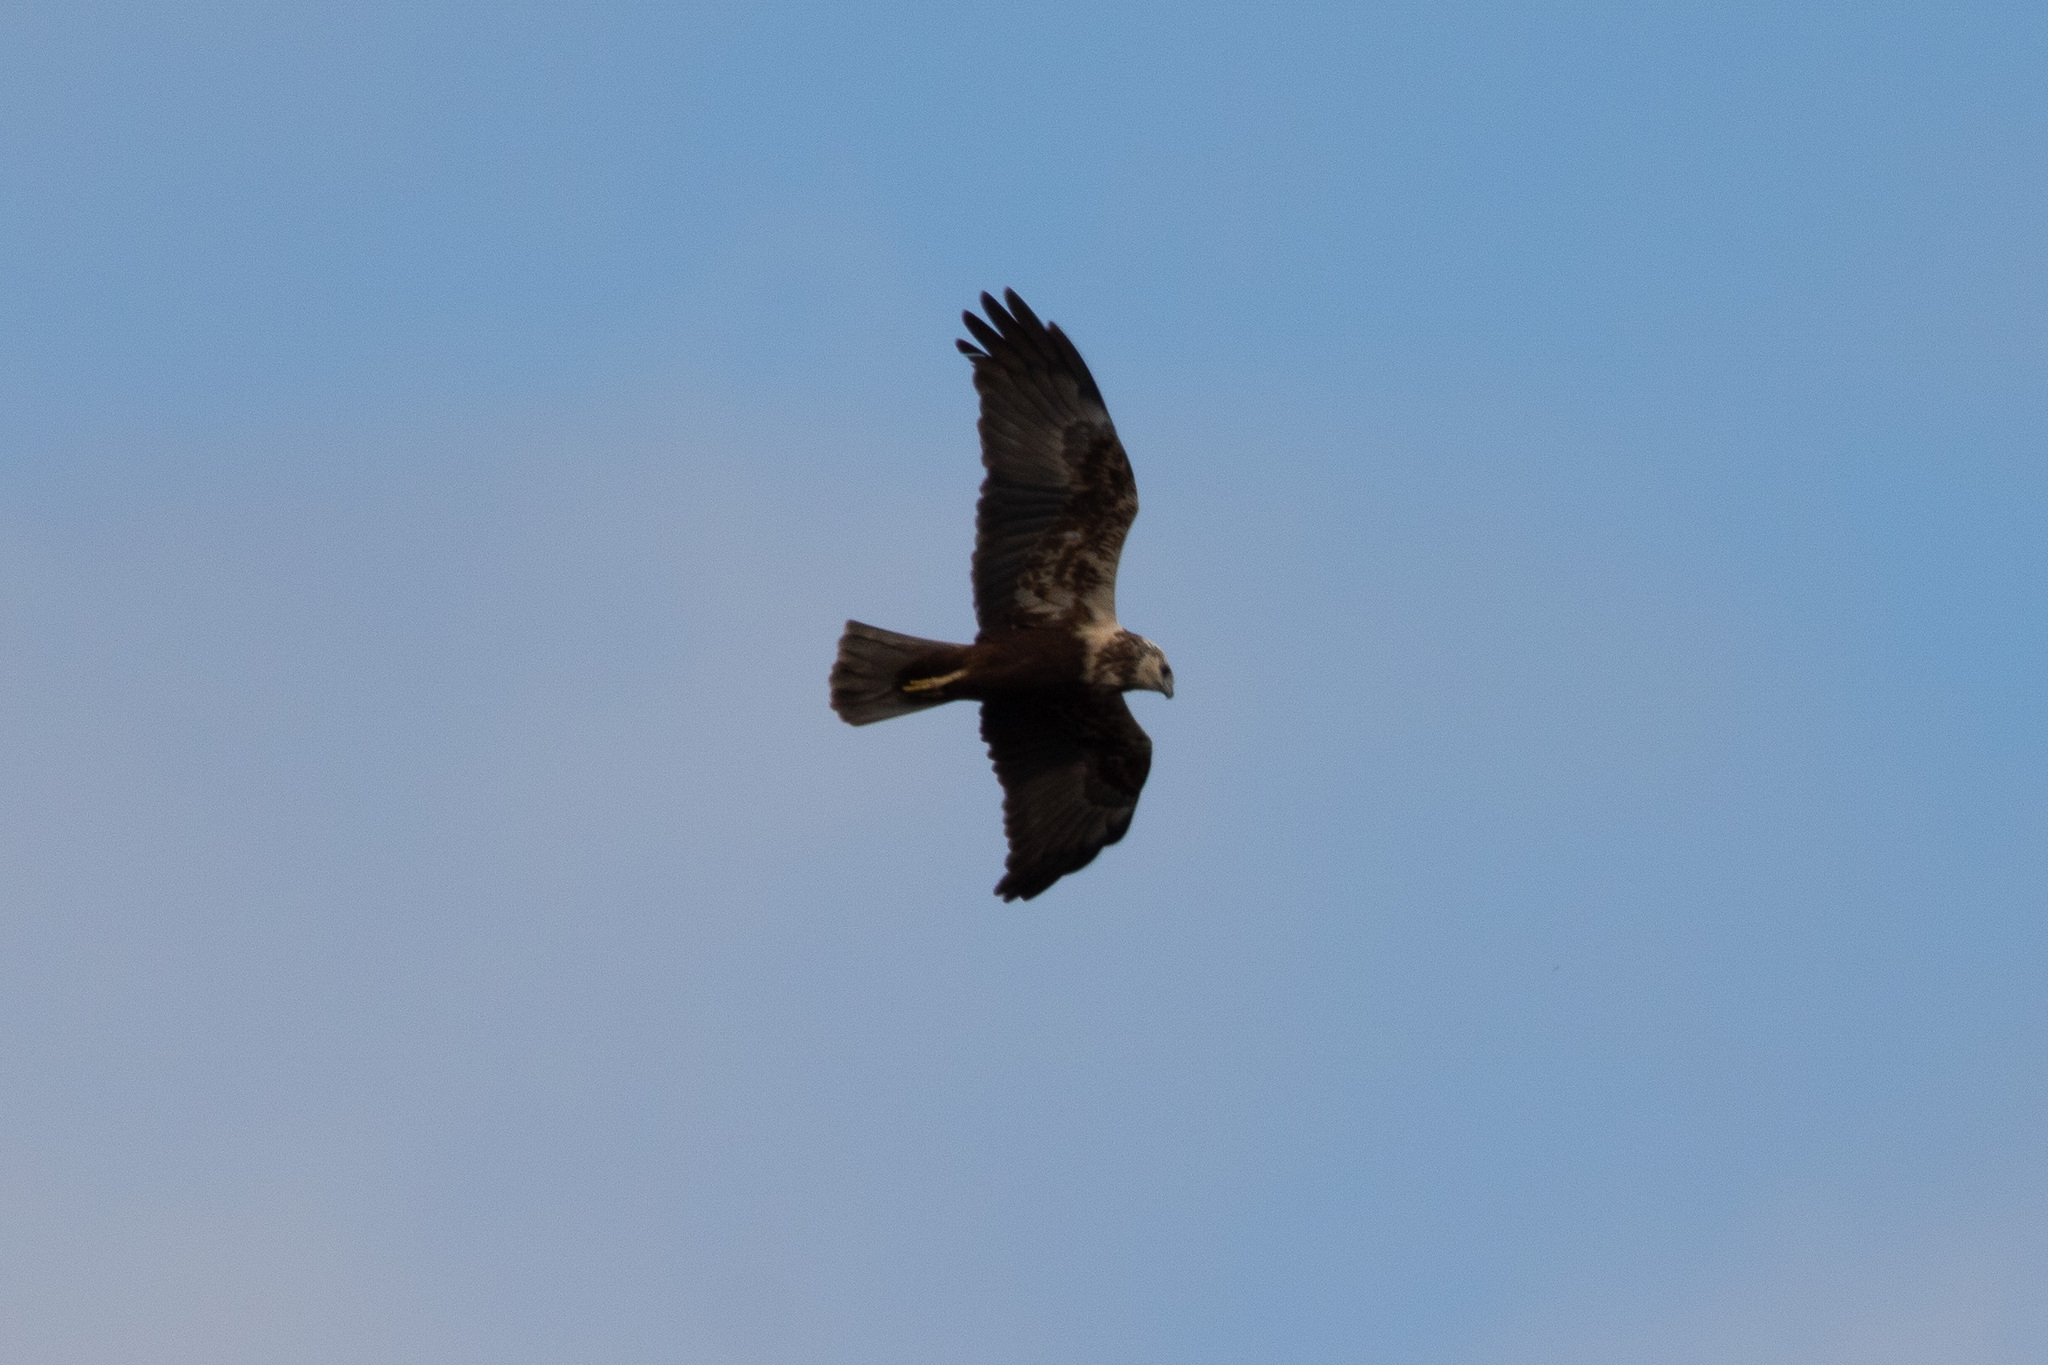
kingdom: Animalia
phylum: Chordata
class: Aves
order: Accipitriformes
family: Accipitridae
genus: Circus
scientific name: Circus aeruginosus
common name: Western marsh harrier
